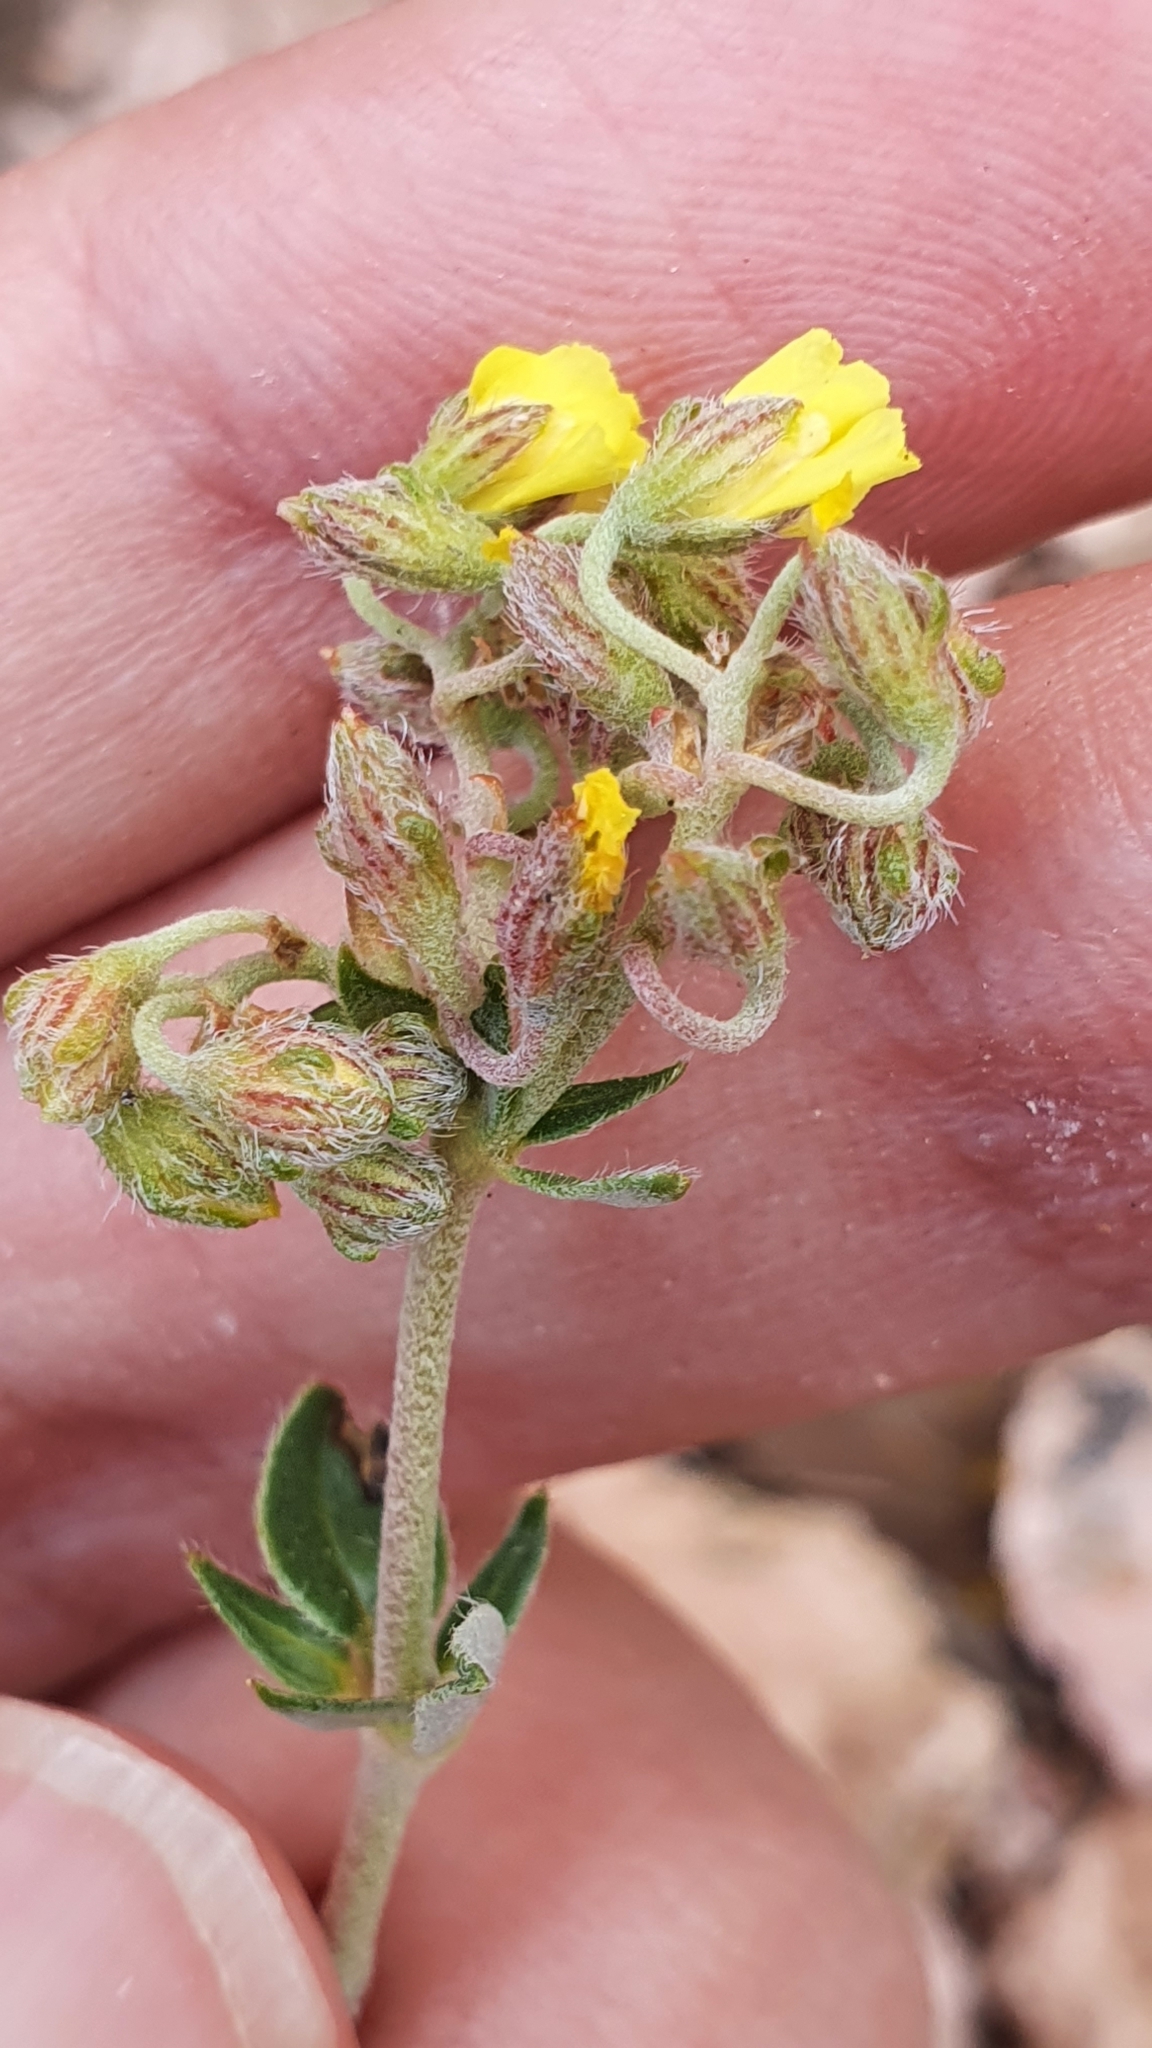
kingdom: Plantae
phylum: Tracheophyta
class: Magnoliopsida
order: Malvales
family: Cistaceae
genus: Helianthemum
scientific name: Helianthemum cinereum
